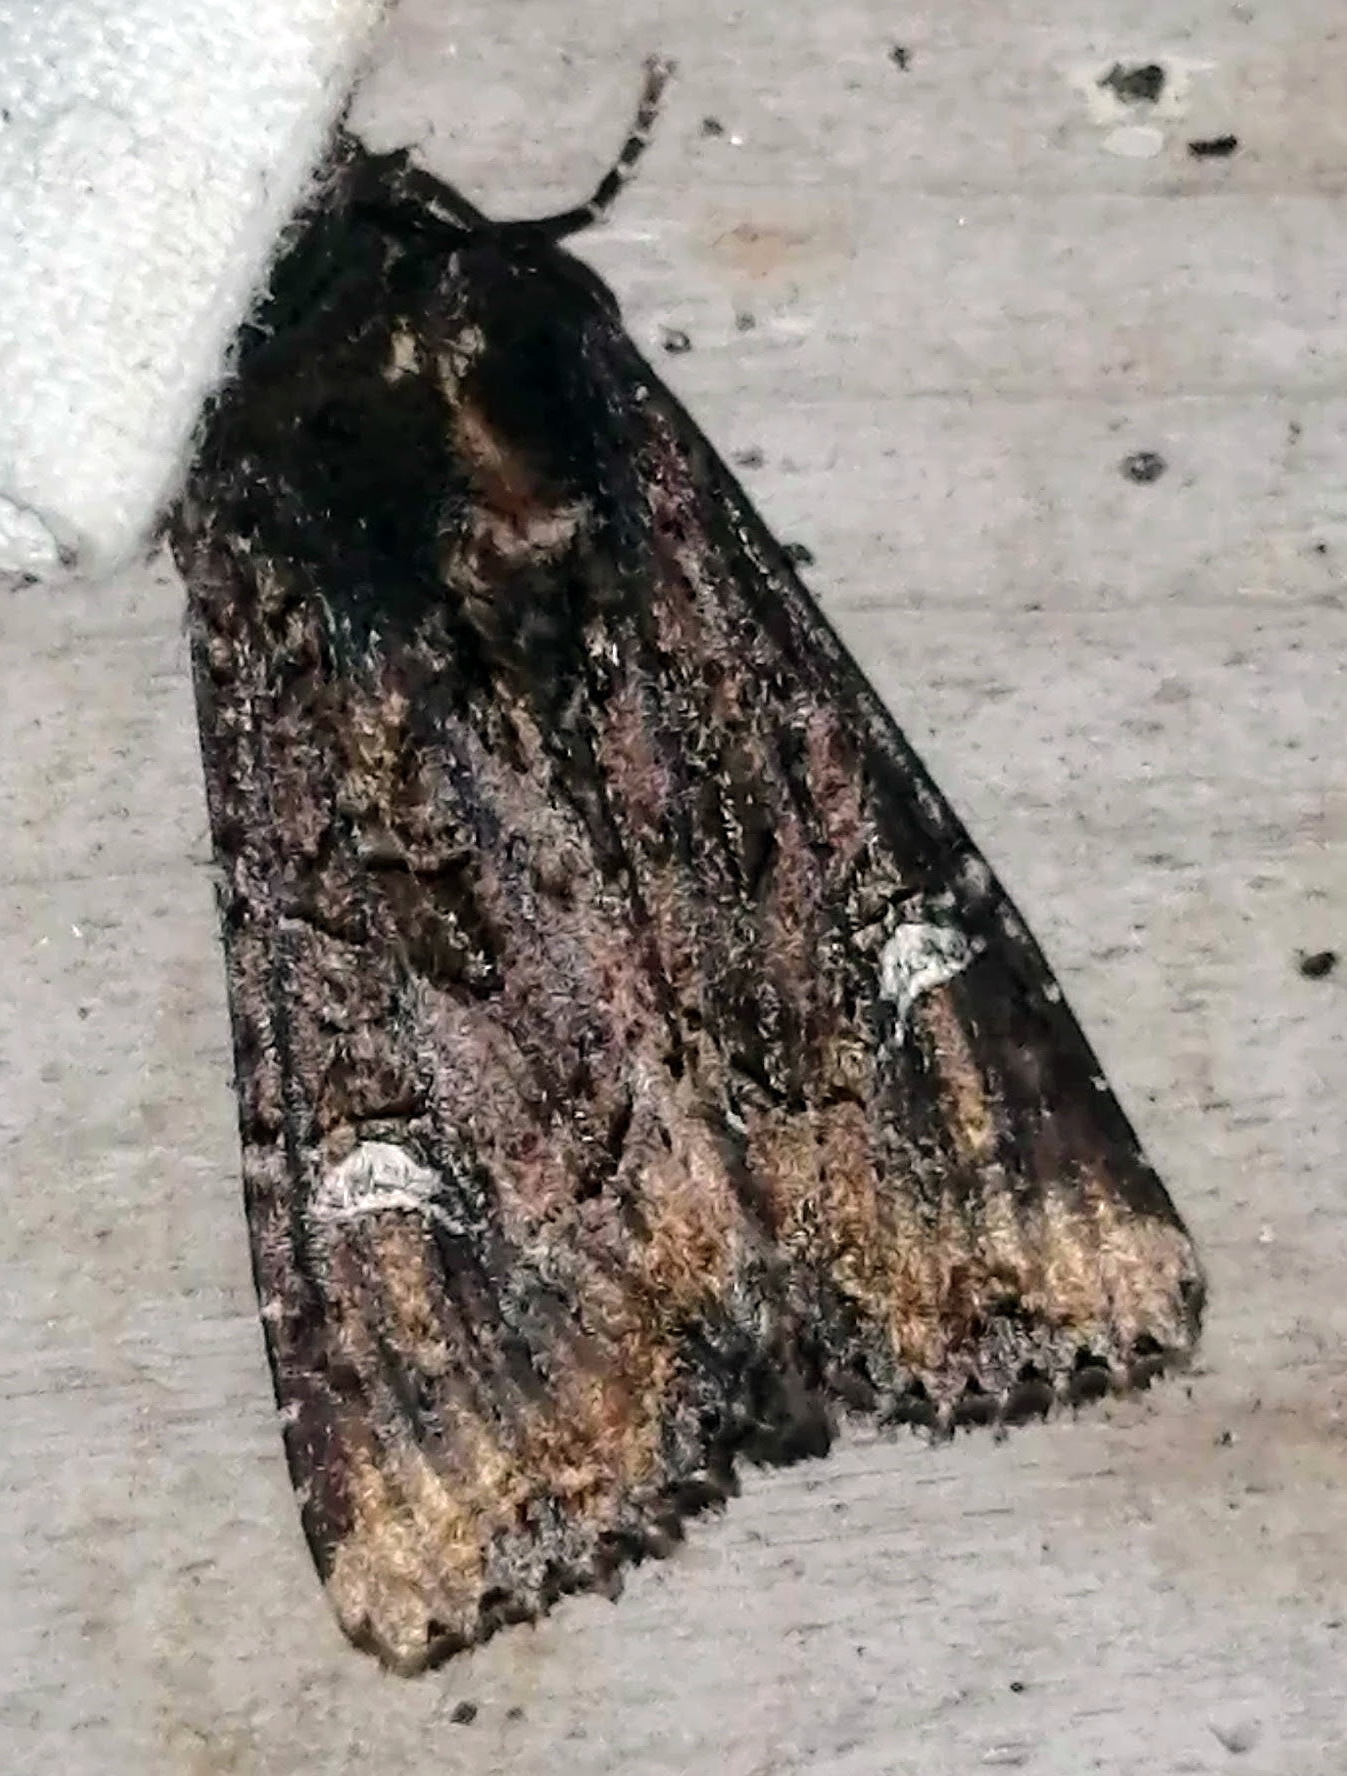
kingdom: Animalia
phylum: Arthropoda
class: Insecta
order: Lepidoptera
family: Noctuidae
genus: Helotropha
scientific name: Helotropha reniformis
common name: Kidney-spotted rustic moth
